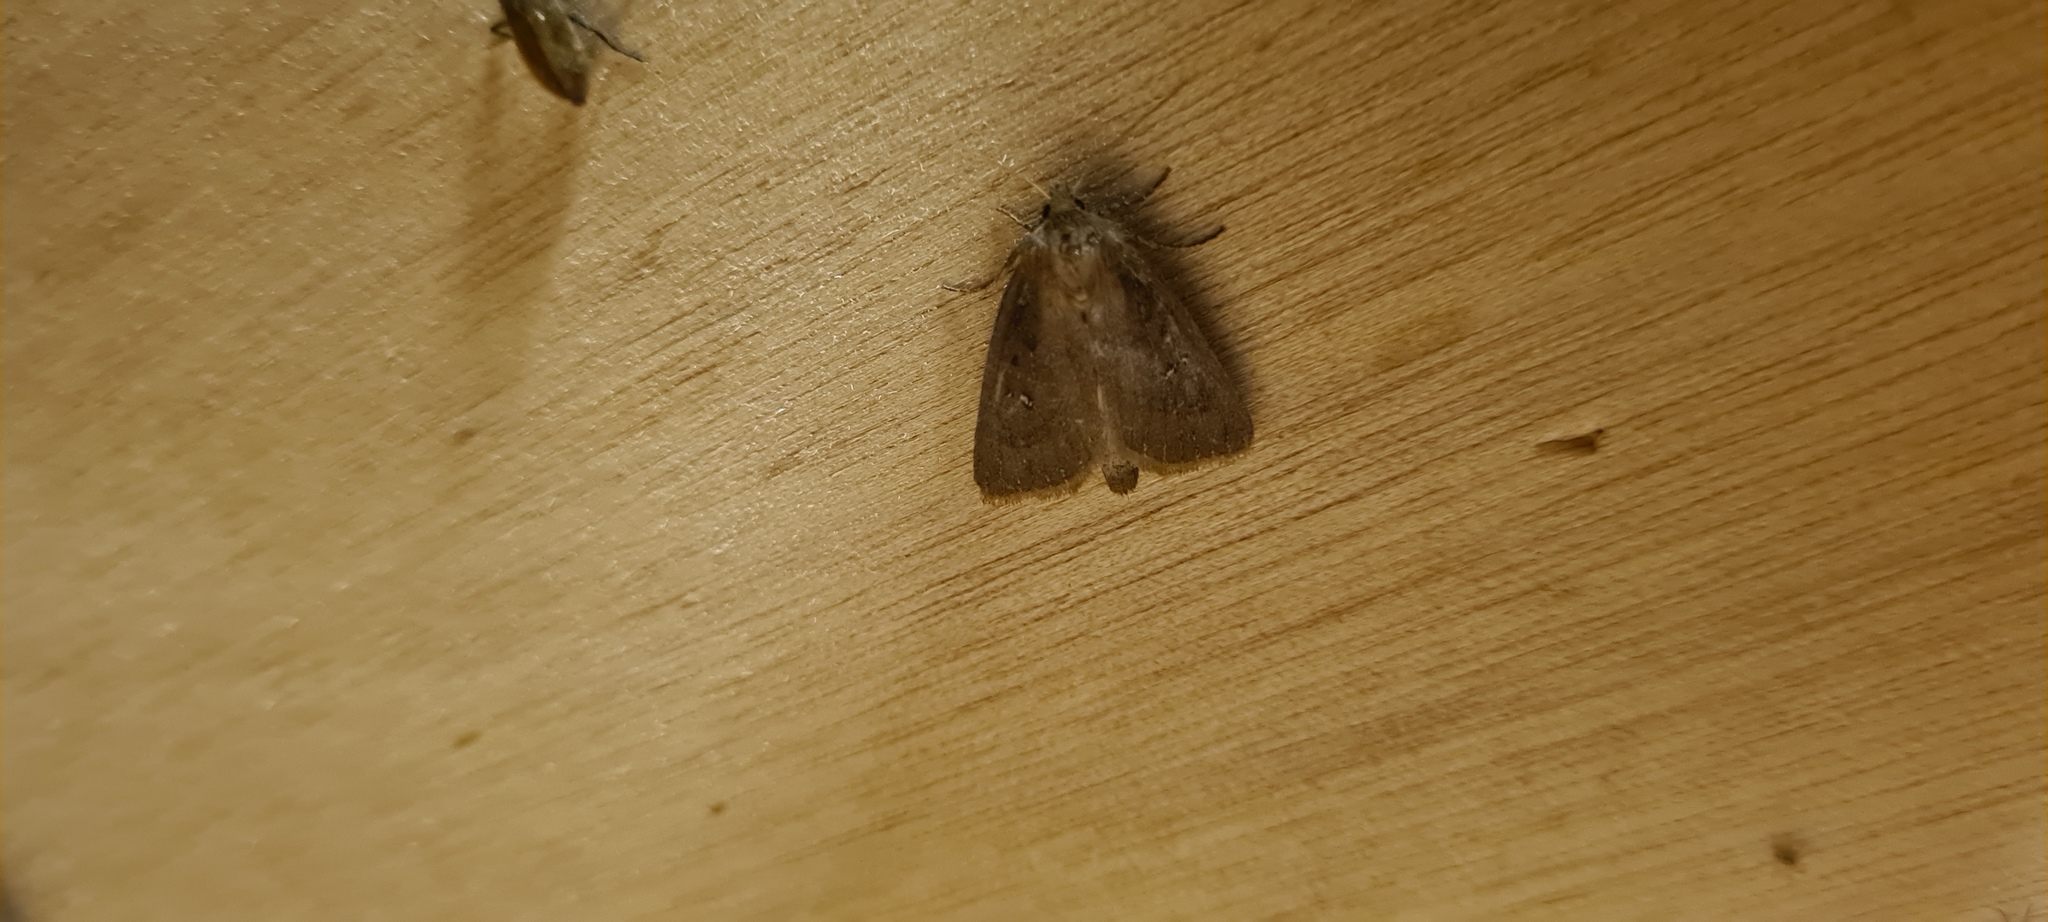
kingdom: Animalia
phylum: Arthropoda
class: Insecta
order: Lepidoptera
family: Noctuidae
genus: Lenisa
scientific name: Lenisa geminipuncta
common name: Twin-spotted wainscot
